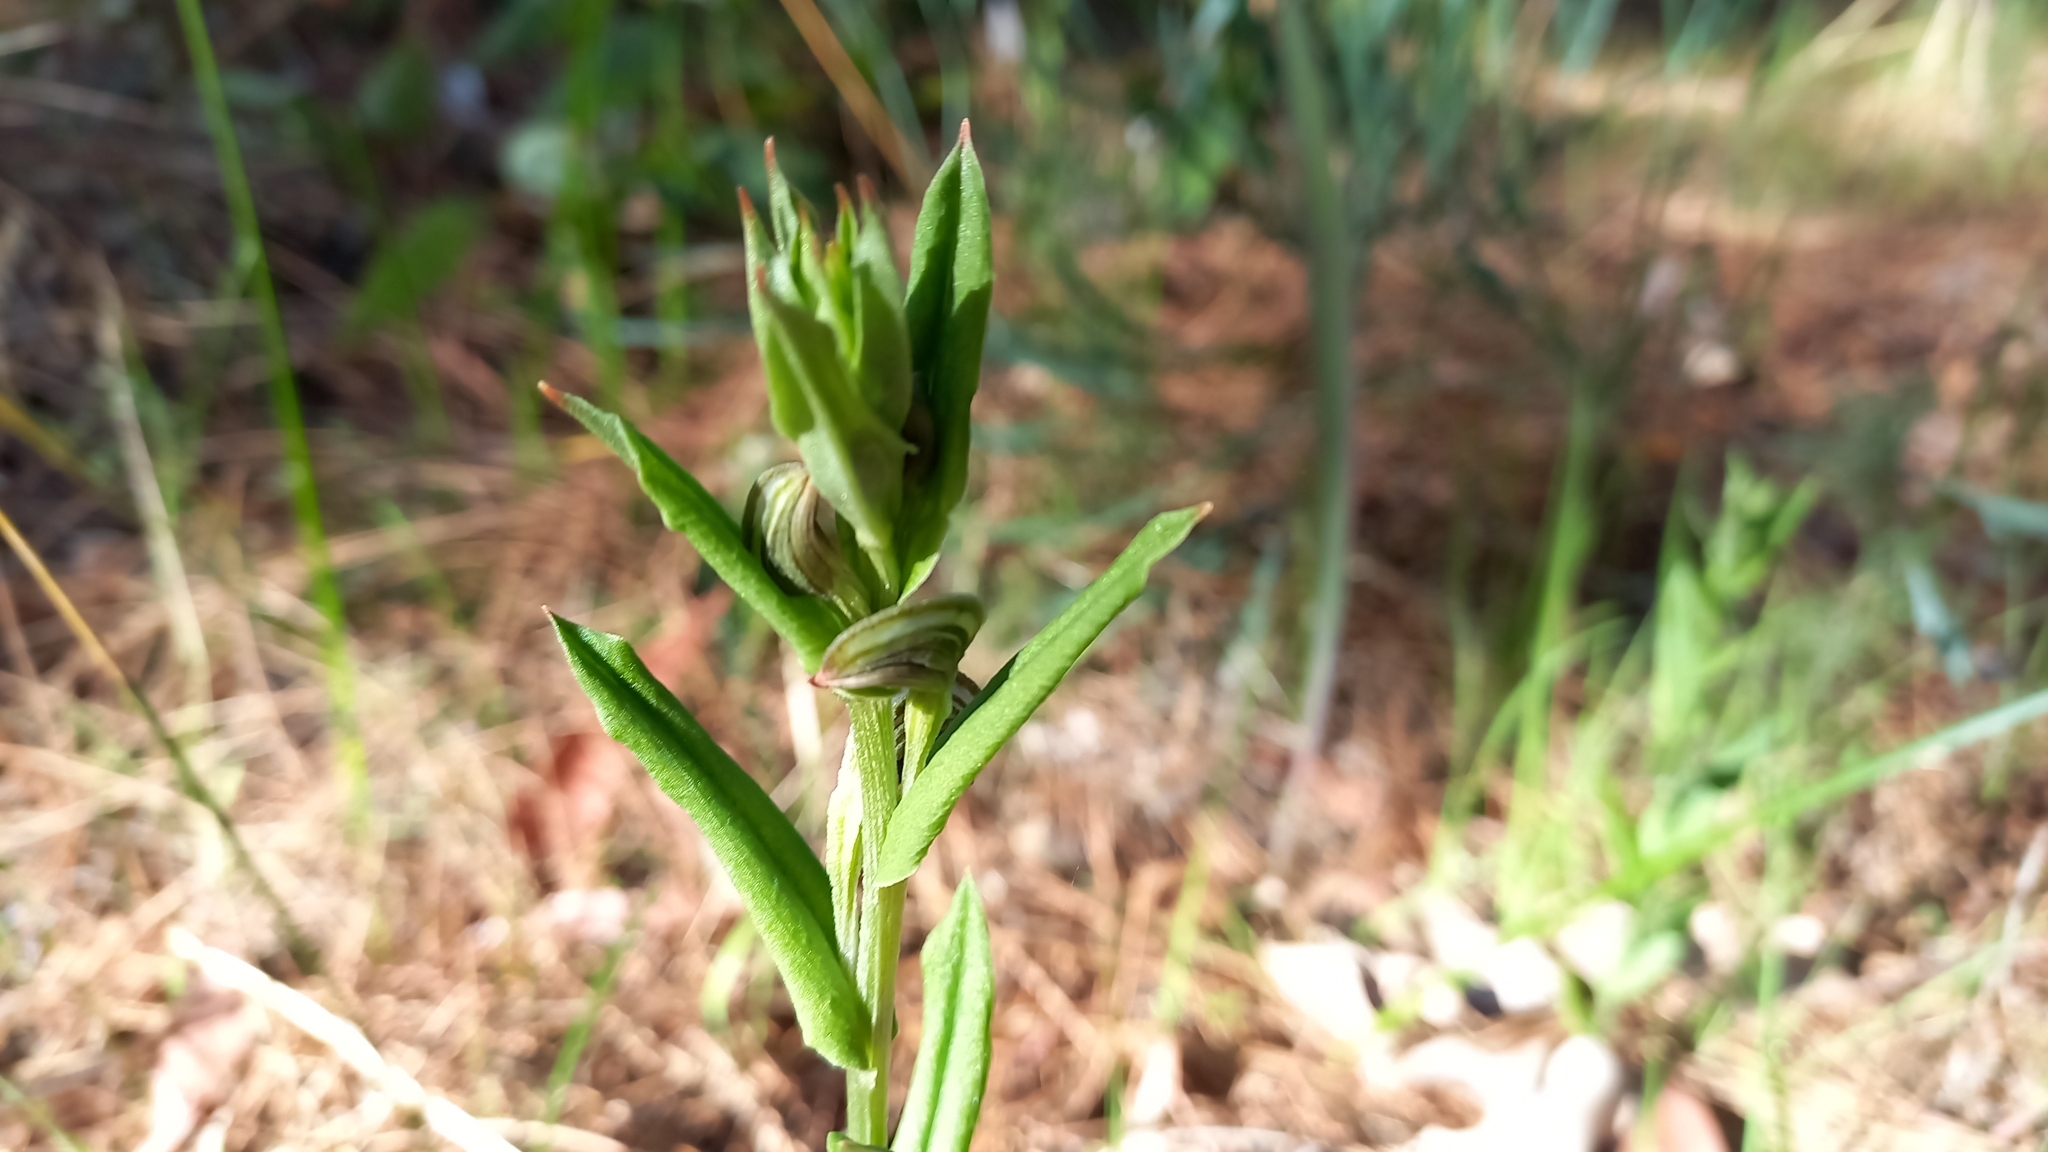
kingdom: Plantae
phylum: Tracheophyta
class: Liliopsida
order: Asparagales
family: Orchidaceae
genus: Pterostylis
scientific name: Pterostylis sanguinea
